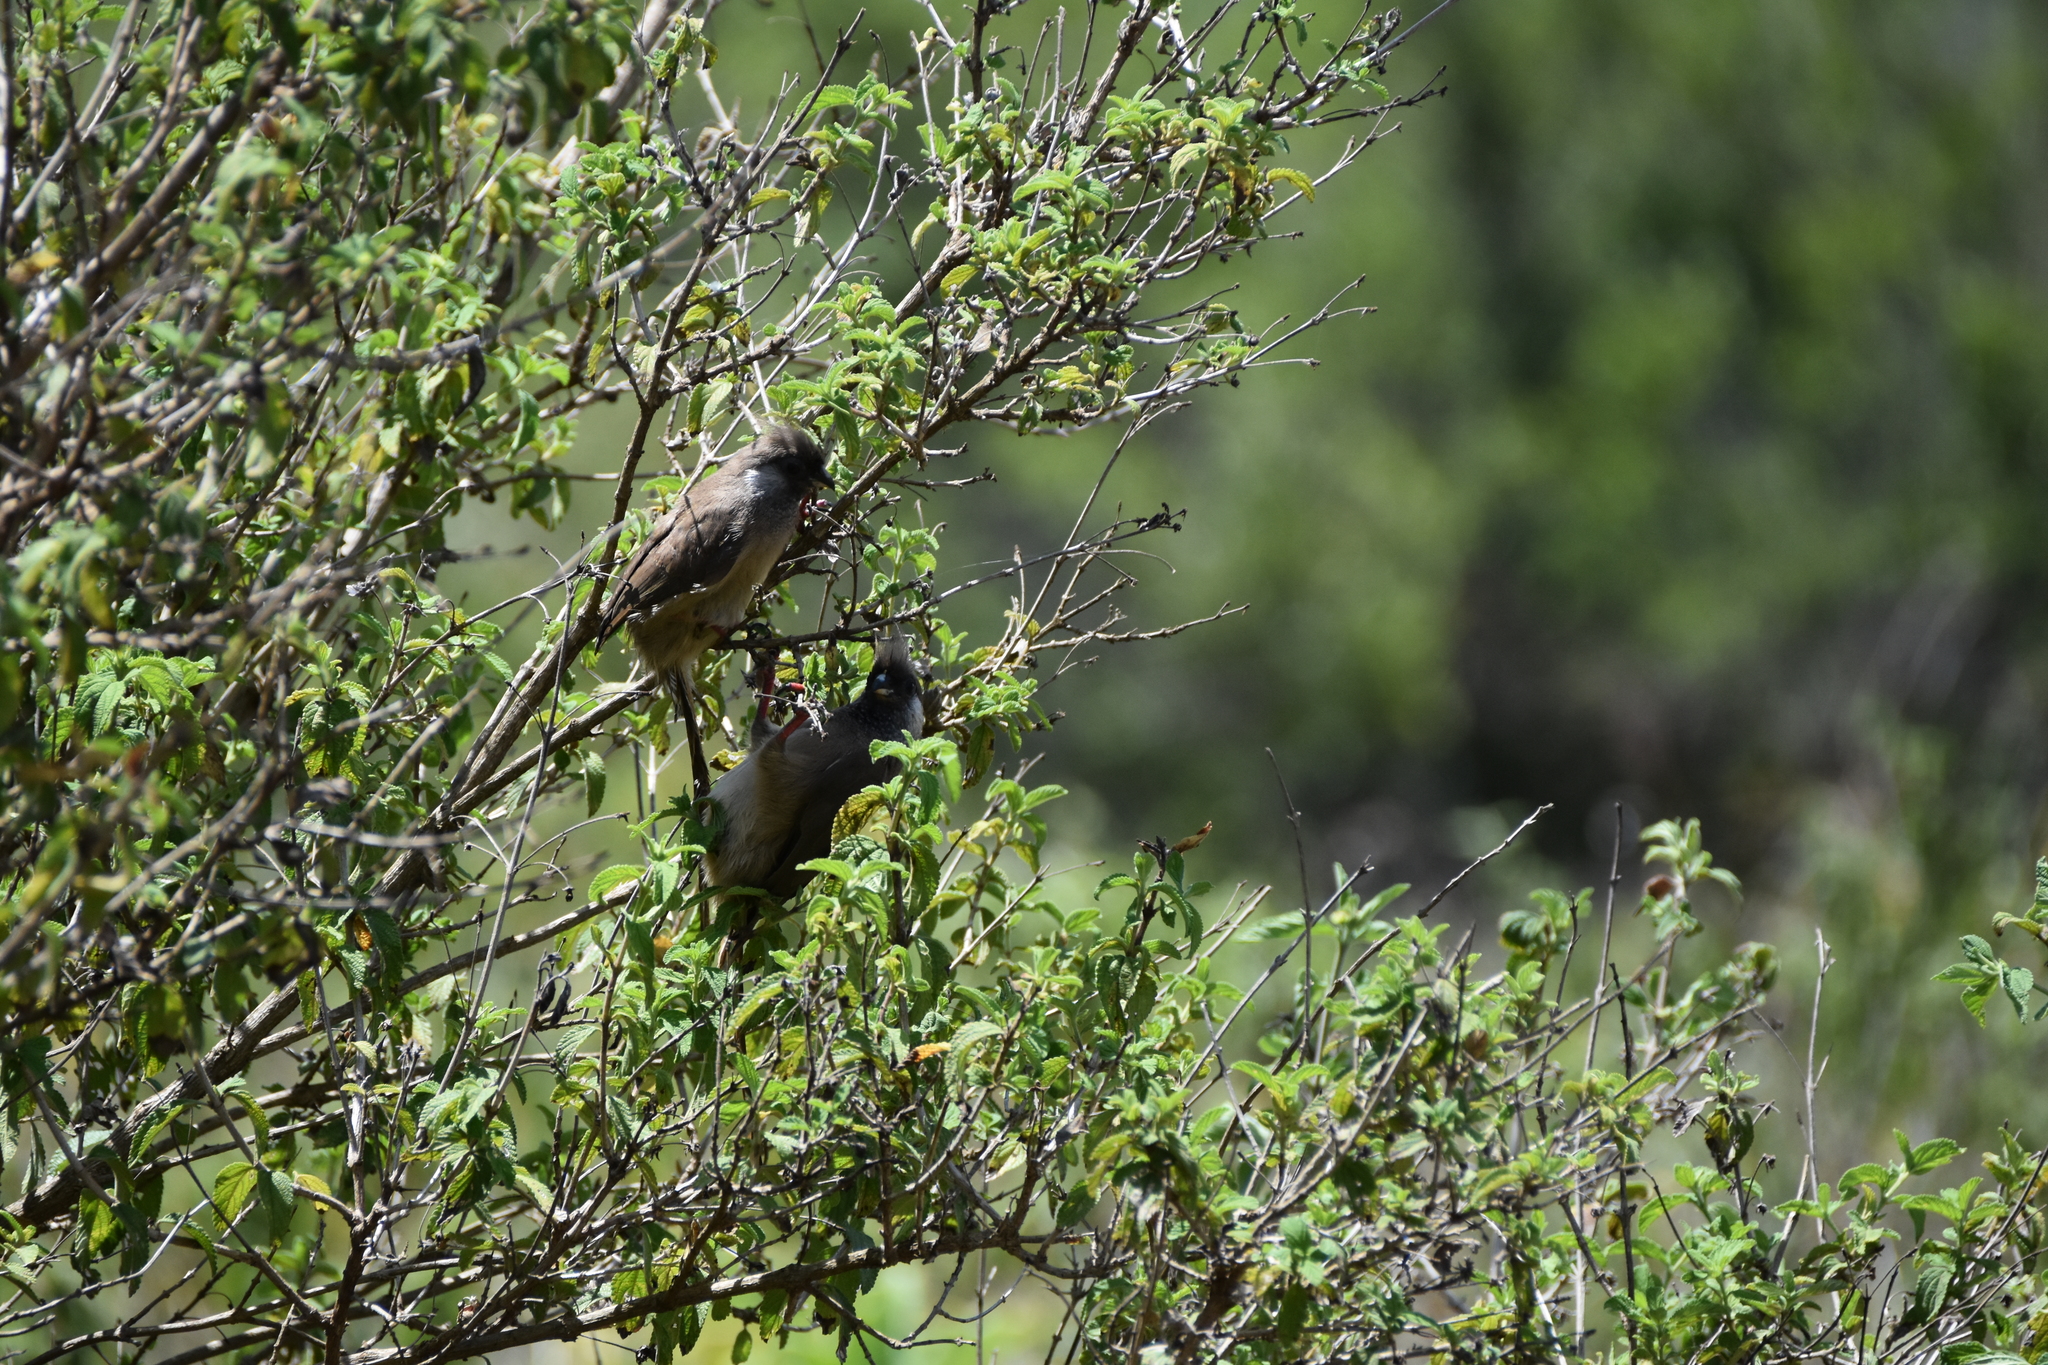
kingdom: Animalia
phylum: Chordata
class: Aves
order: Coliiformes
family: Coliidae
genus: Colius
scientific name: Colius striatus
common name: Speckled mousebird
